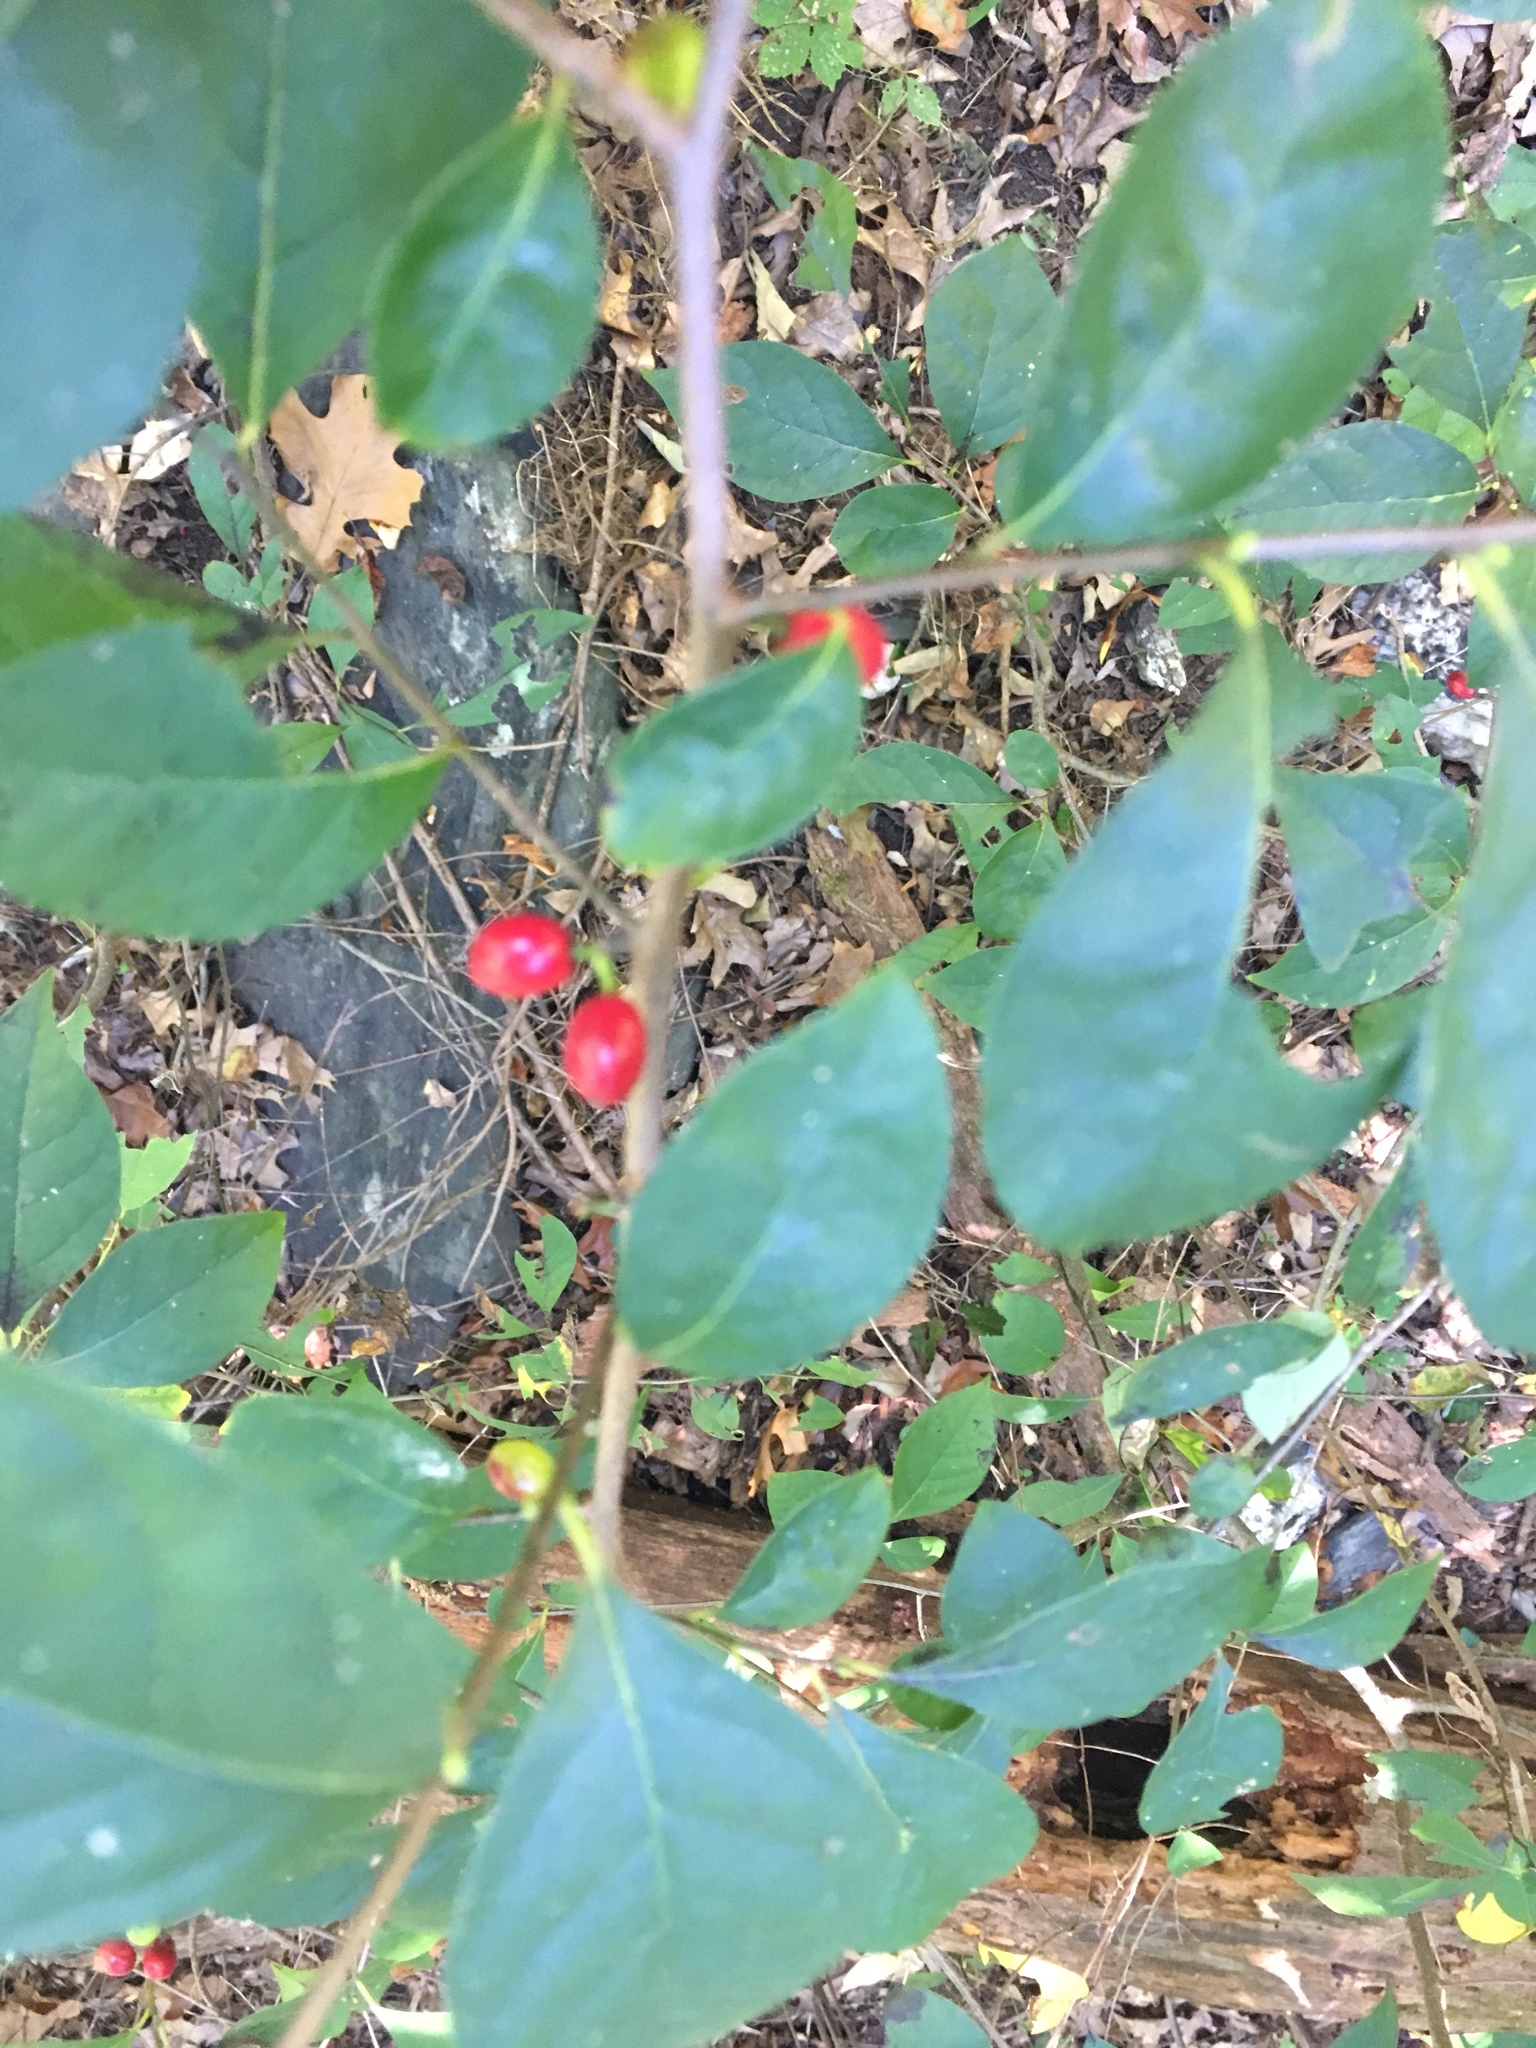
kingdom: Plantae
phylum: Tracheophyta
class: Magnoliopsida
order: Laurales
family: Lauraceae
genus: Lindera
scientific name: Lindera benzoin
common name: Spicebush
